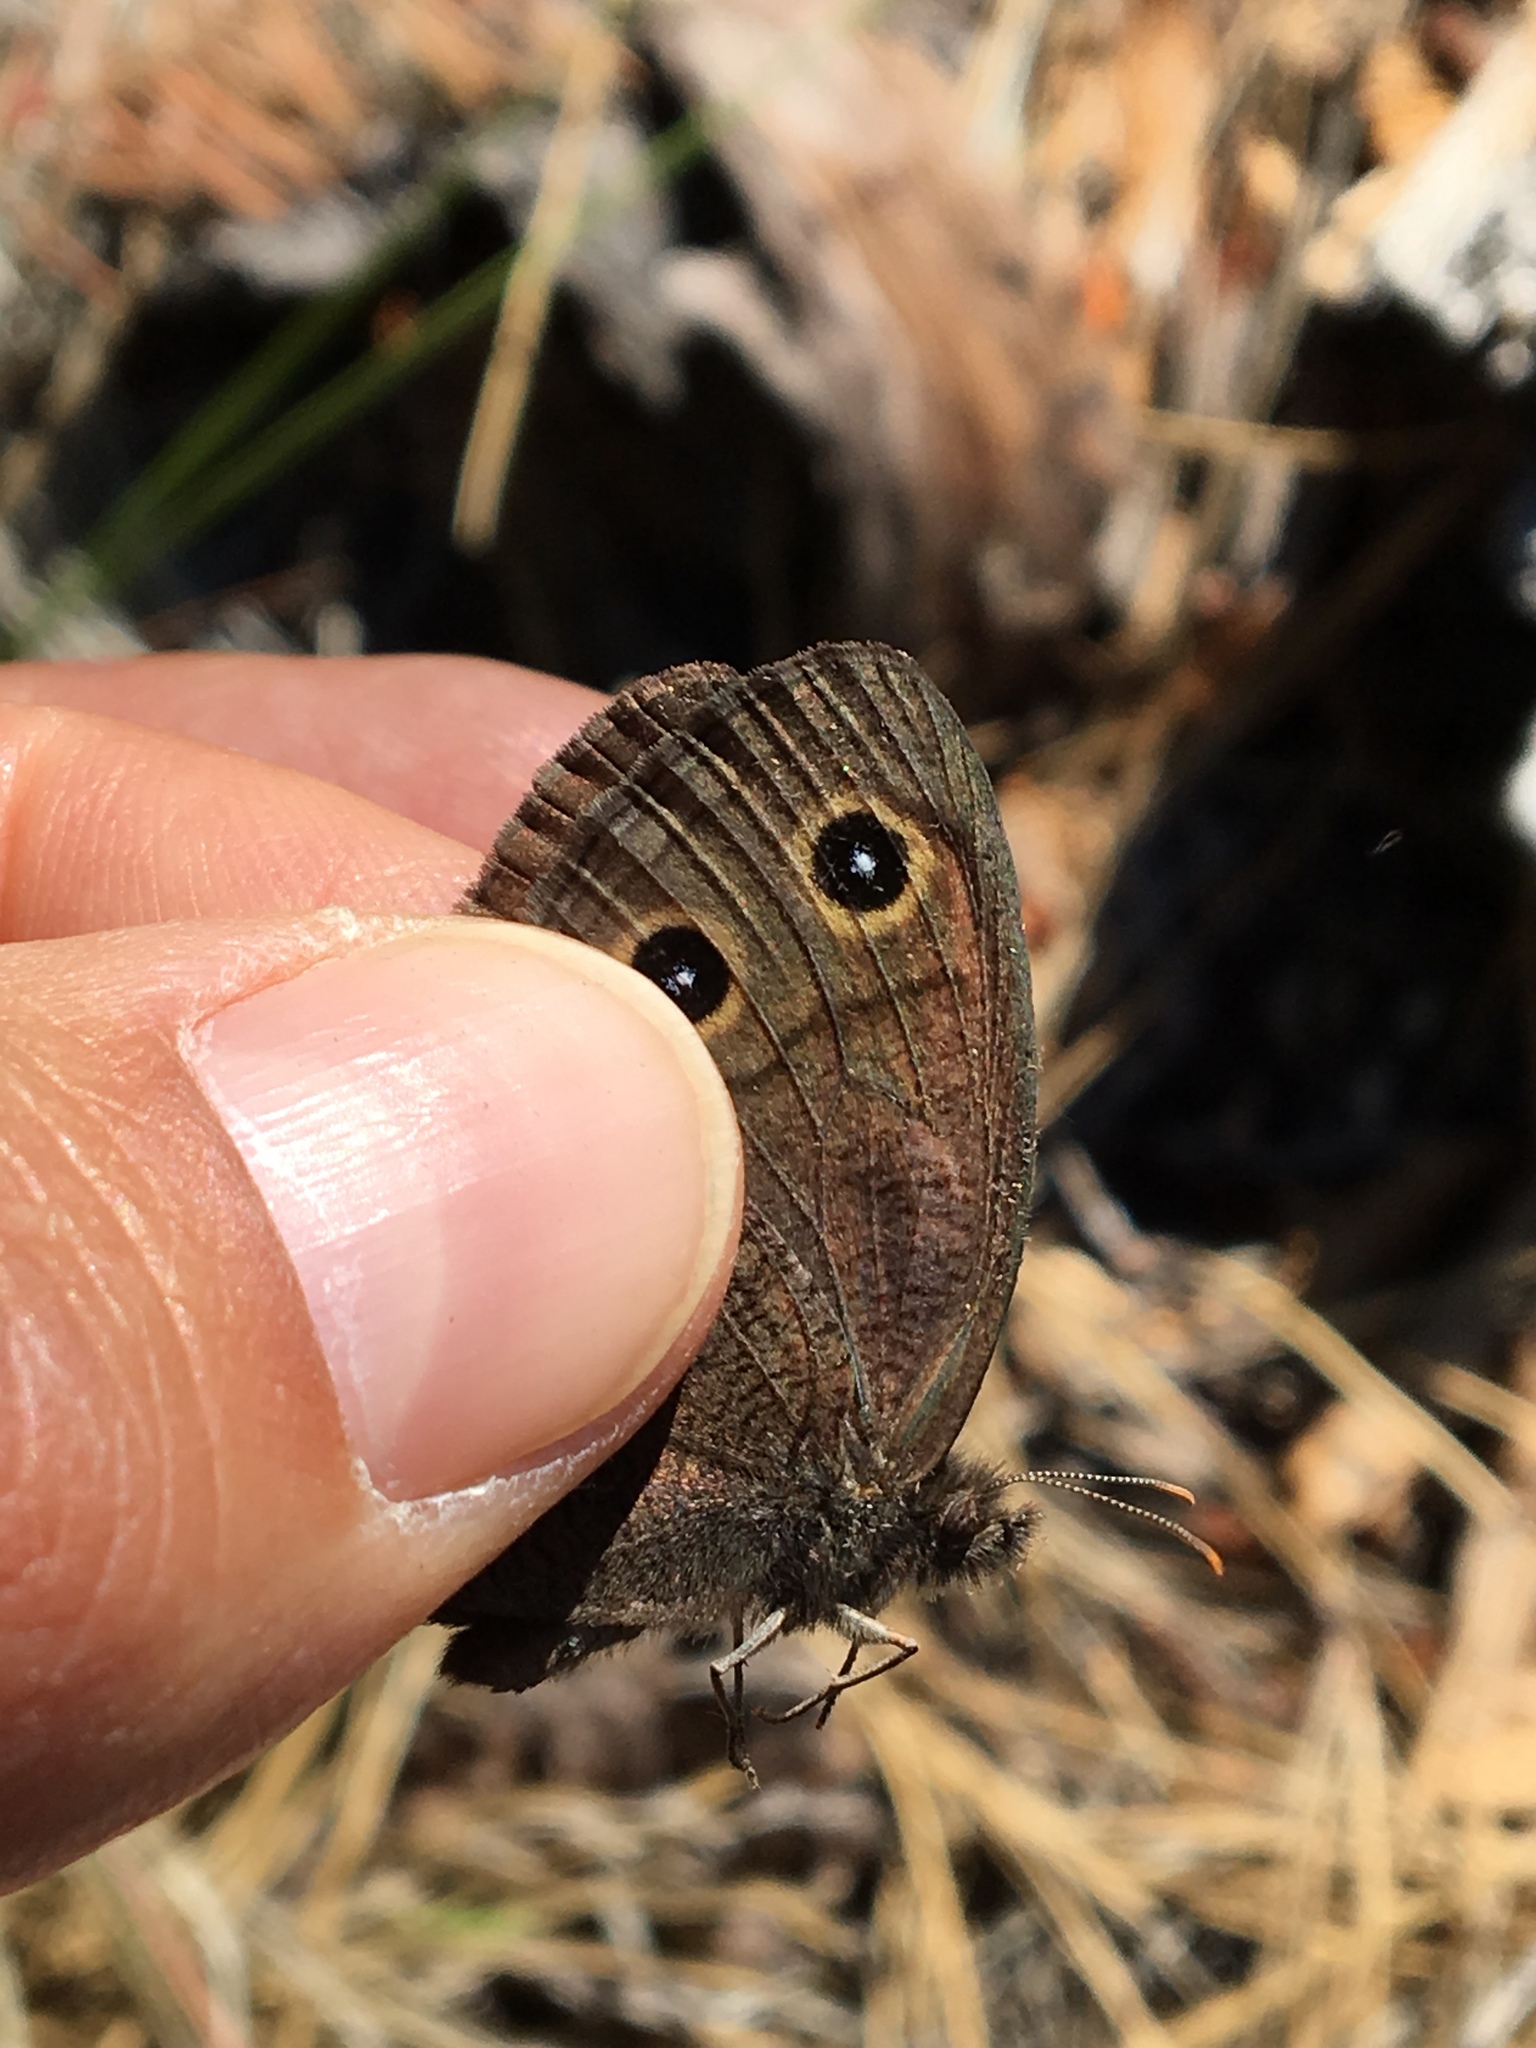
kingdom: Animalia
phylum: Arthropoda
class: Insecta
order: Lepidoptera
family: Nymphalidae
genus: Cercyonis
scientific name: Cercyonis pegala
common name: Common wood-nymph
